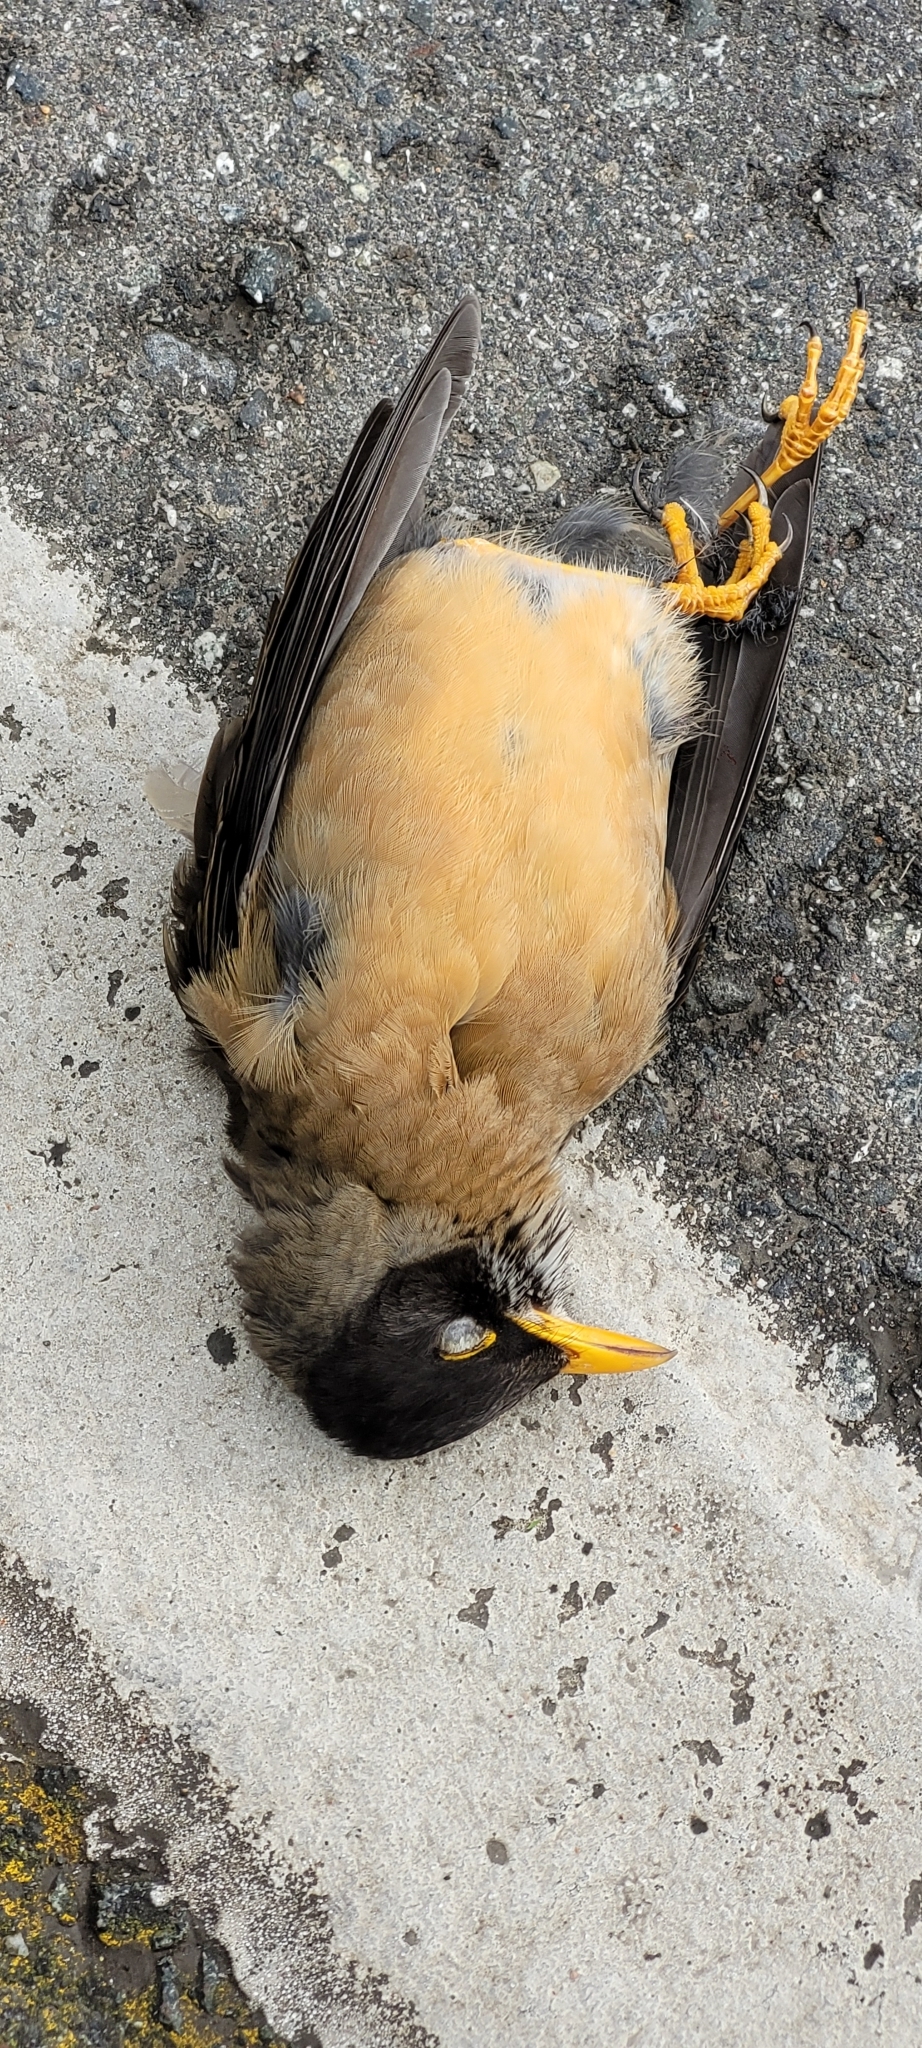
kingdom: Animalia
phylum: Chordata
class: Aves
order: Passeriformes
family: Turdidae
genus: Turdus
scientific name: Turdus falcklandii
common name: Austral thrush
